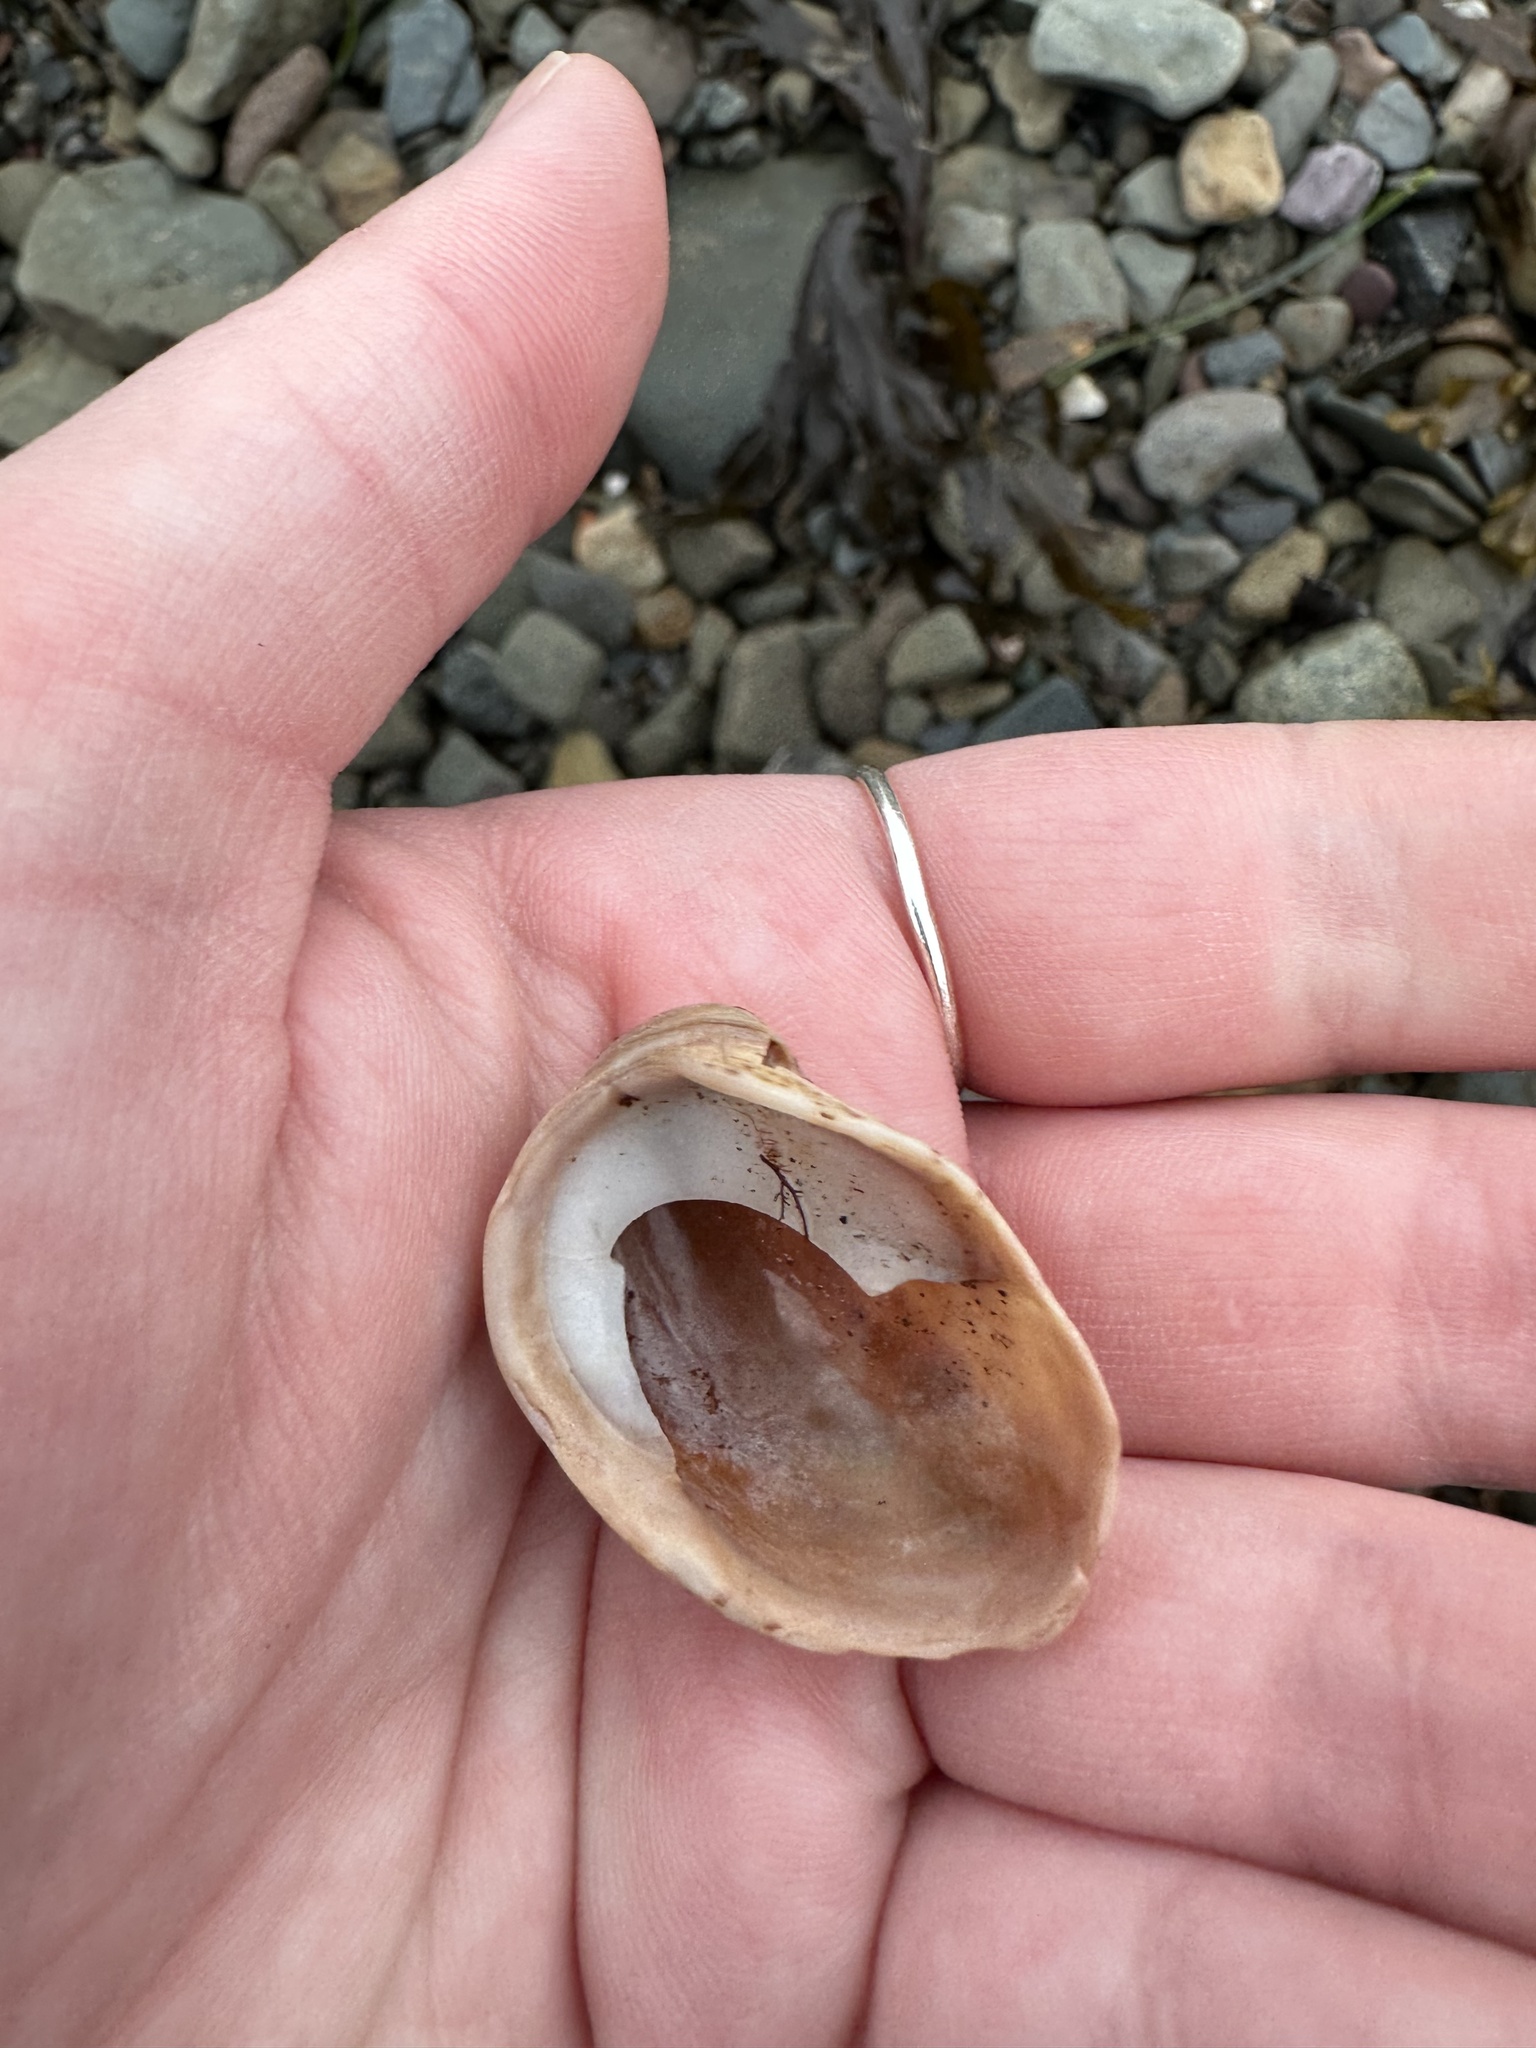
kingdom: Animalia
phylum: Mollusca
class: Gastropoda
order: Littorinimorpha
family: Calyptraeidae
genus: Crepidula
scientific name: Crepidula fornicata
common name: Slipper limpet
